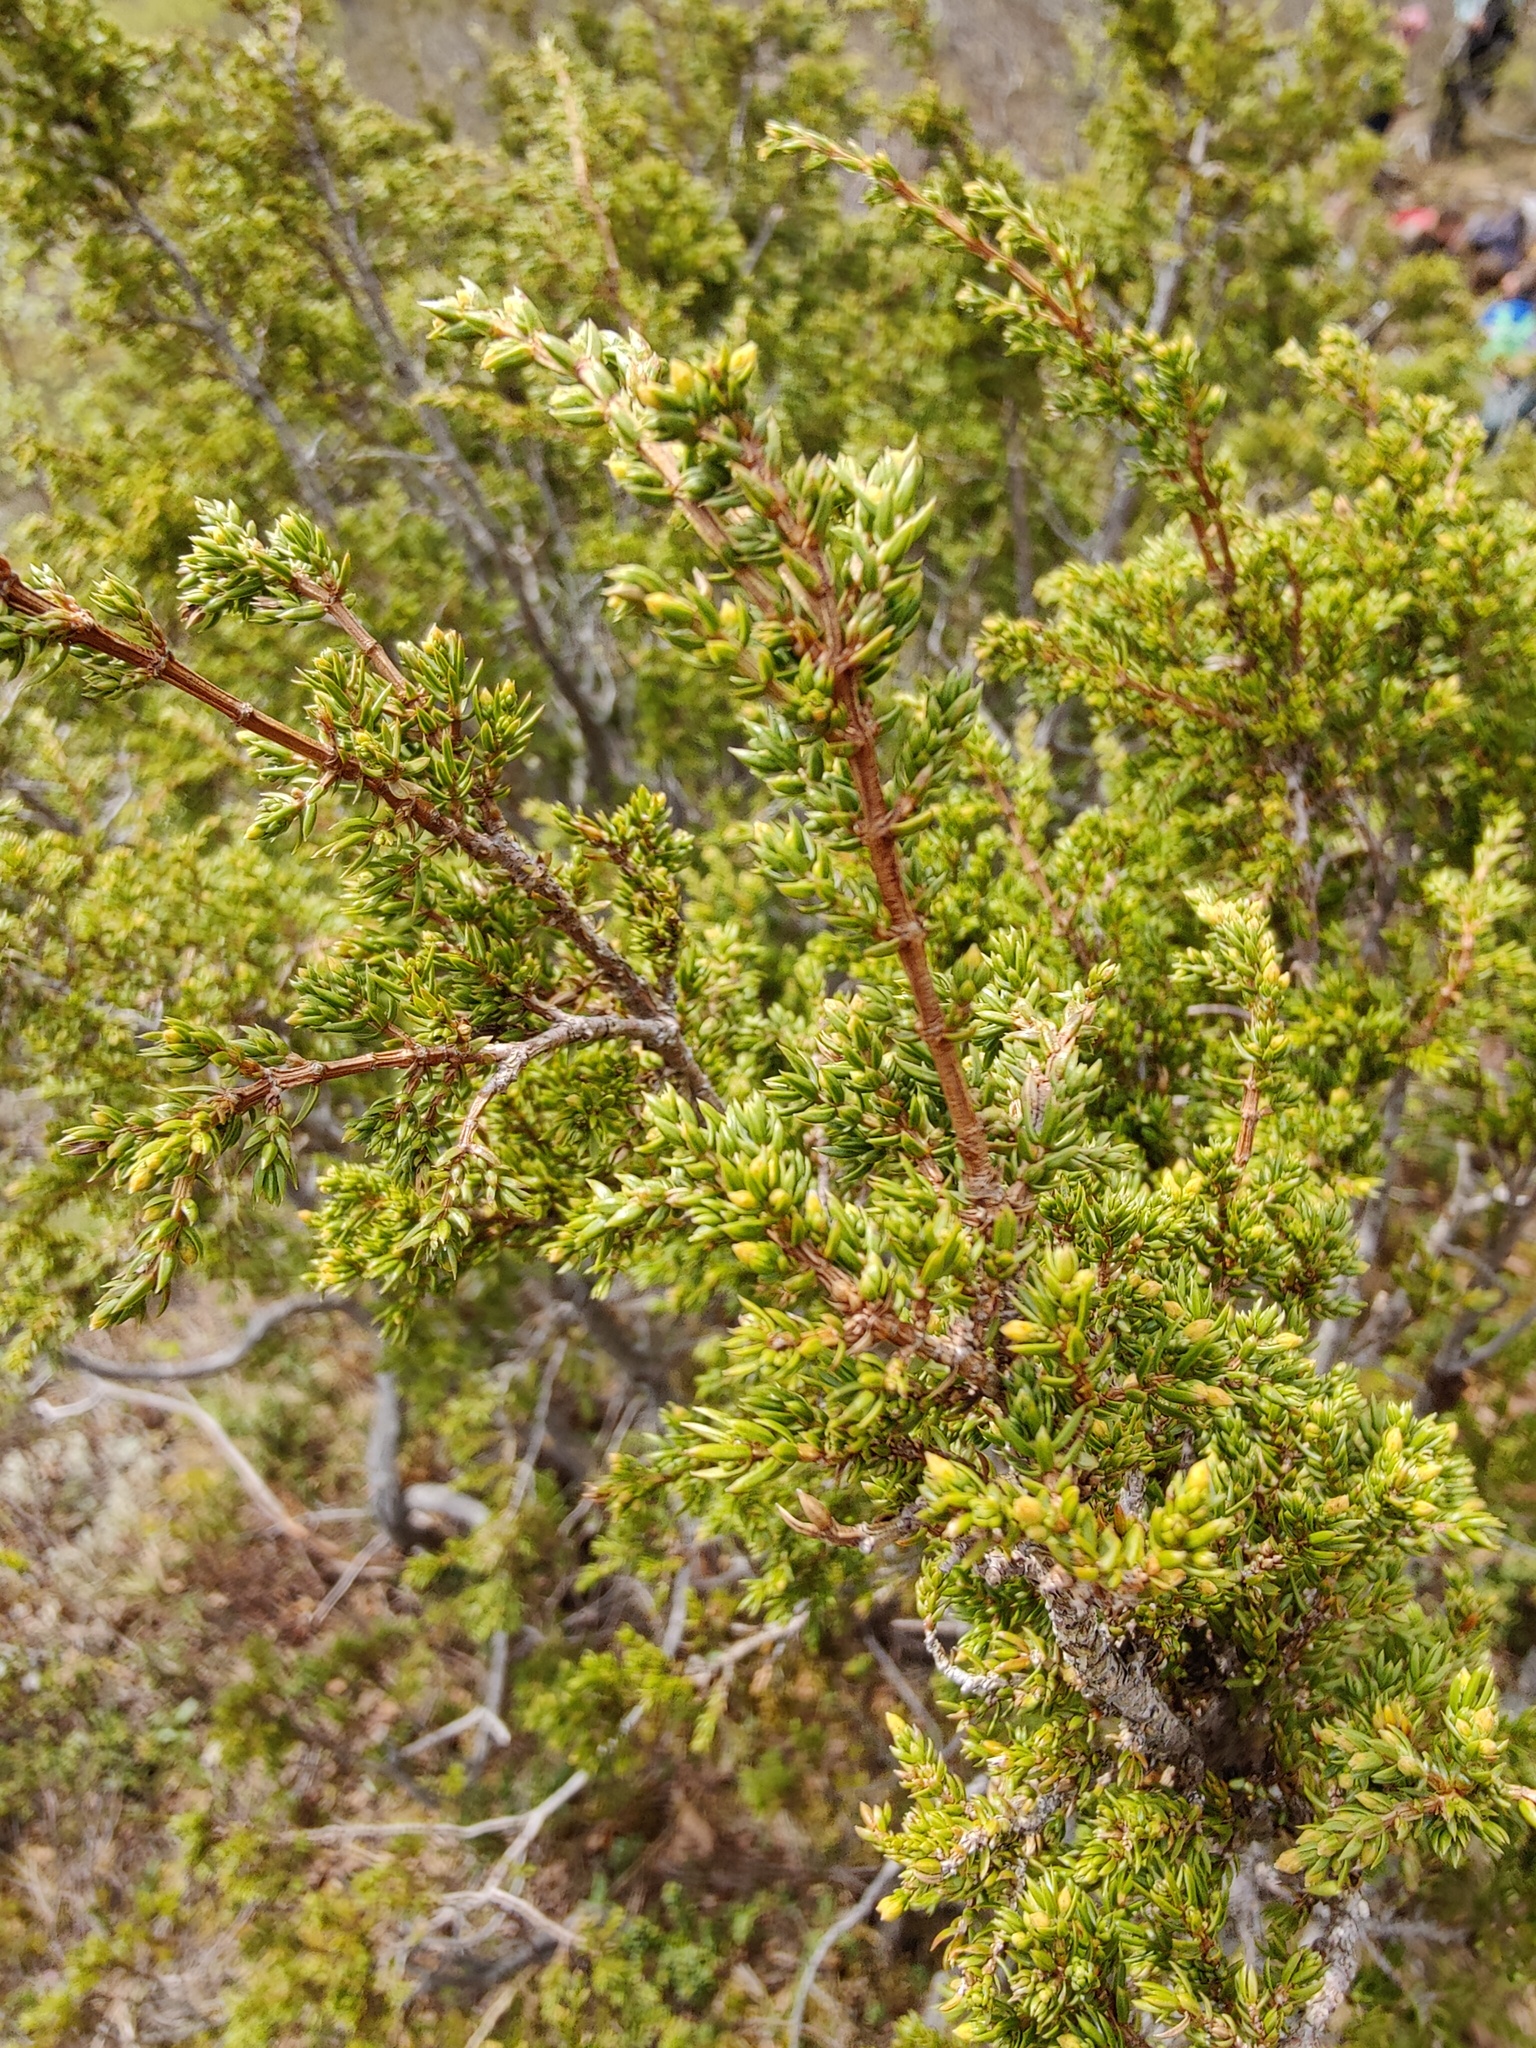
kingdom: Plantae
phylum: Tracheophyta
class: Pinopsida
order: Pinales
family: Cupressaceae
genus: Juniperus
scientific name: Juniperus communis
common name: Common juniper
